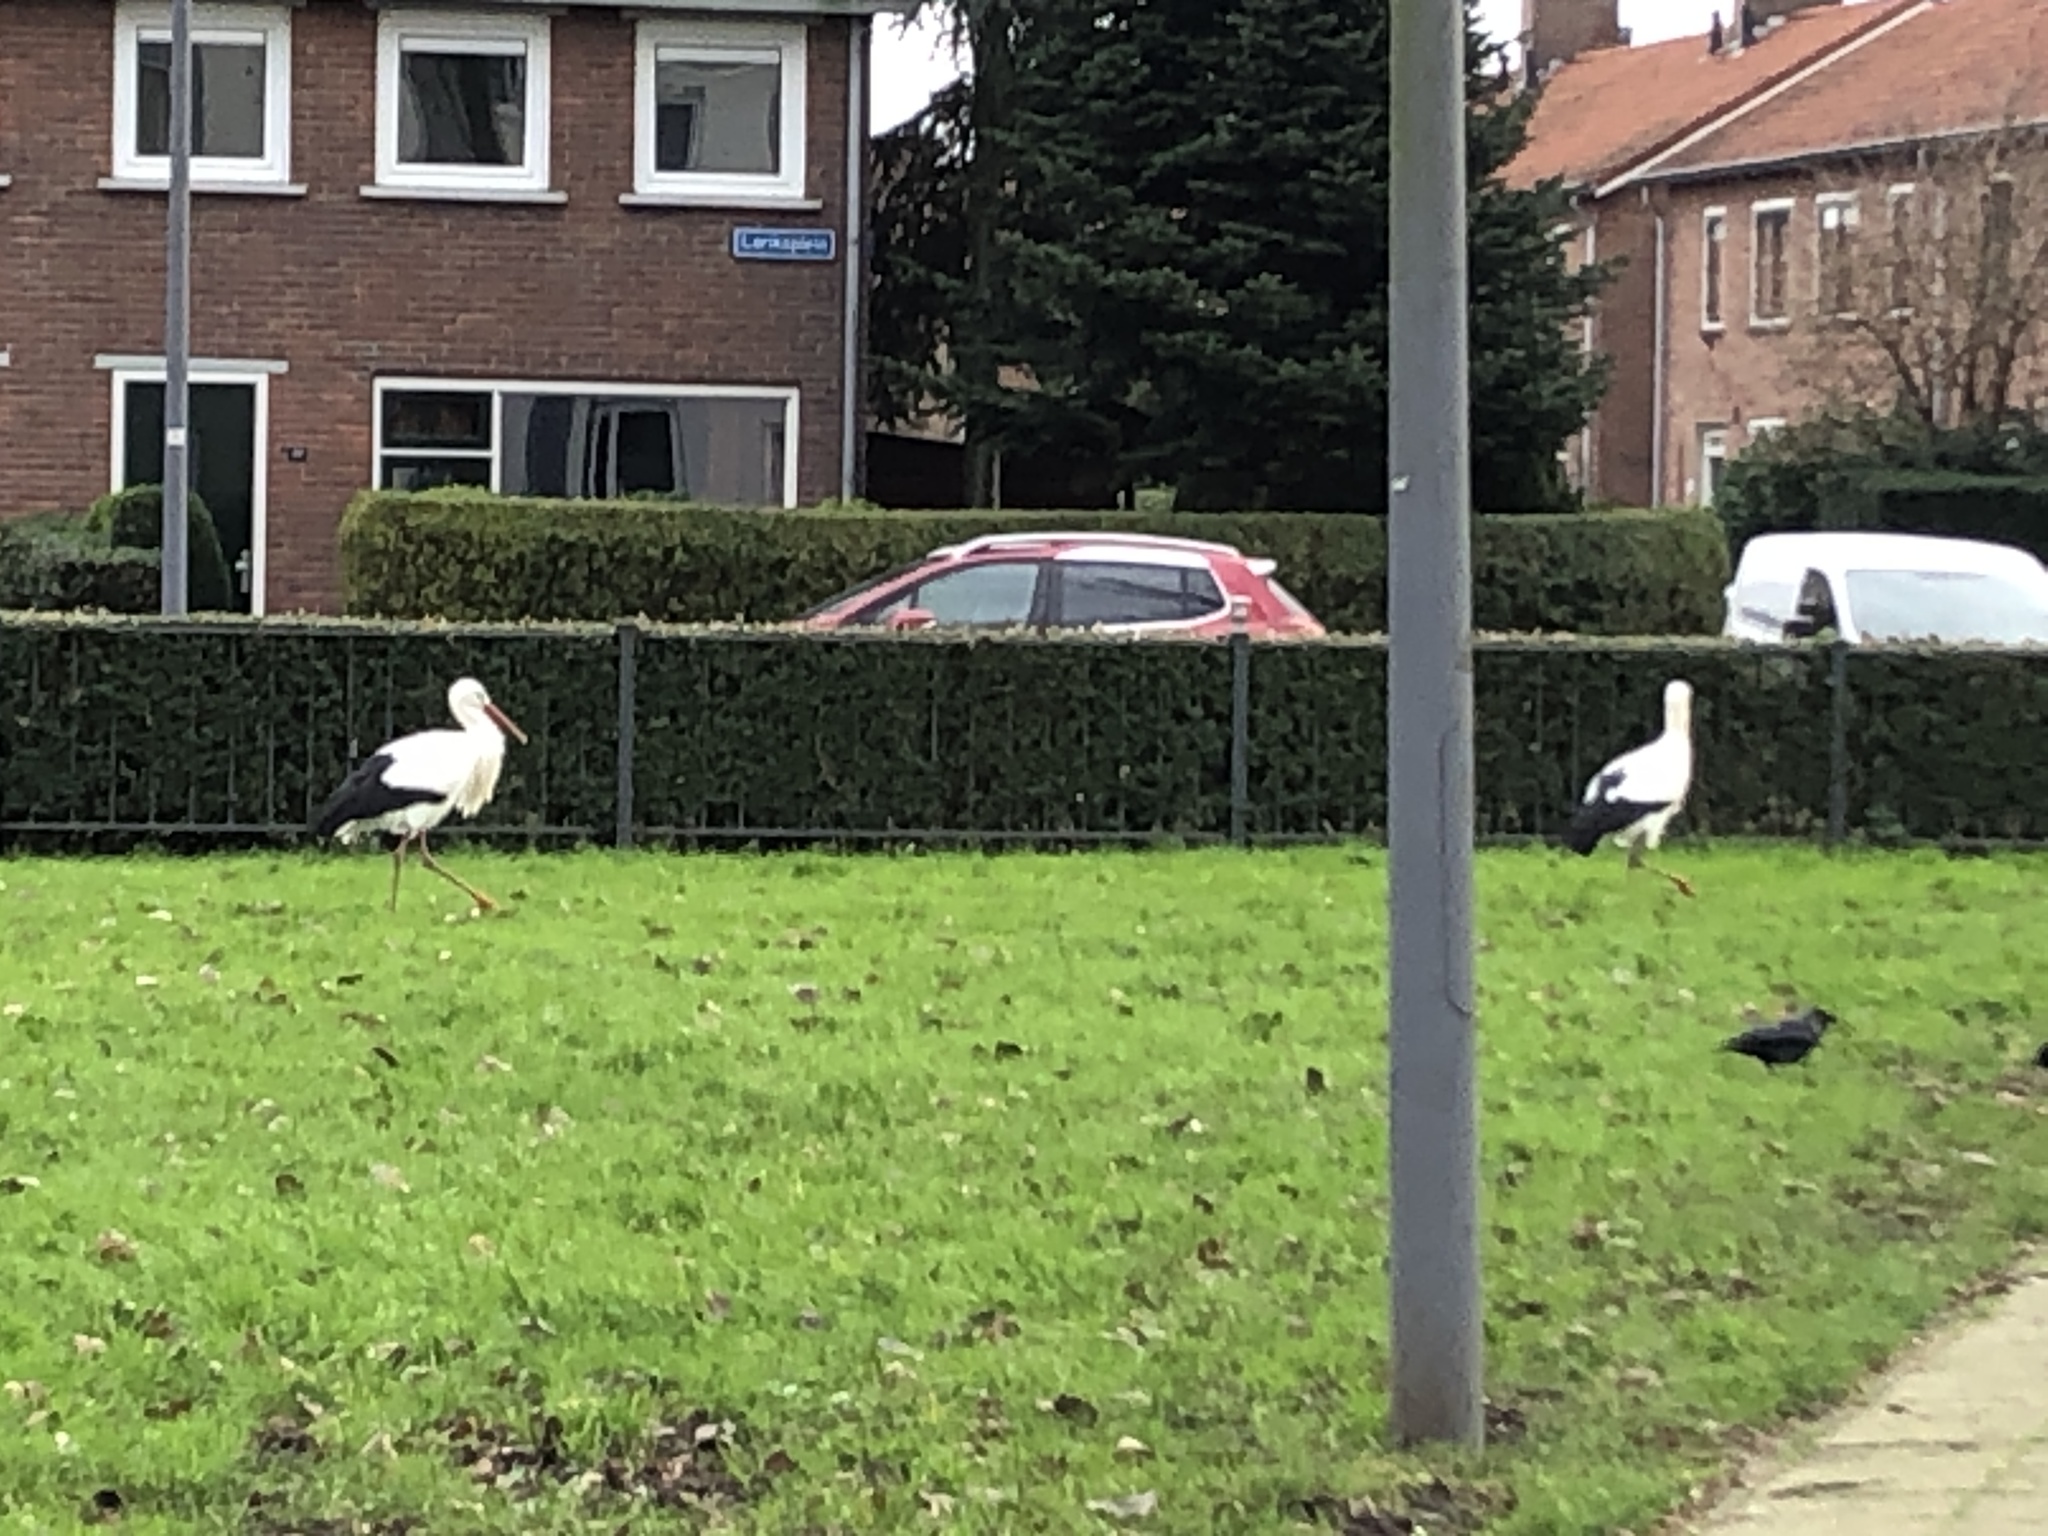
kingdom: Animalia
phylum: Chordata
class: Aves
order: Ciconiiformes
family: Ciconiidae
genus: Ciconia
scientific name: Ciconia ciconia
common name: White stork
